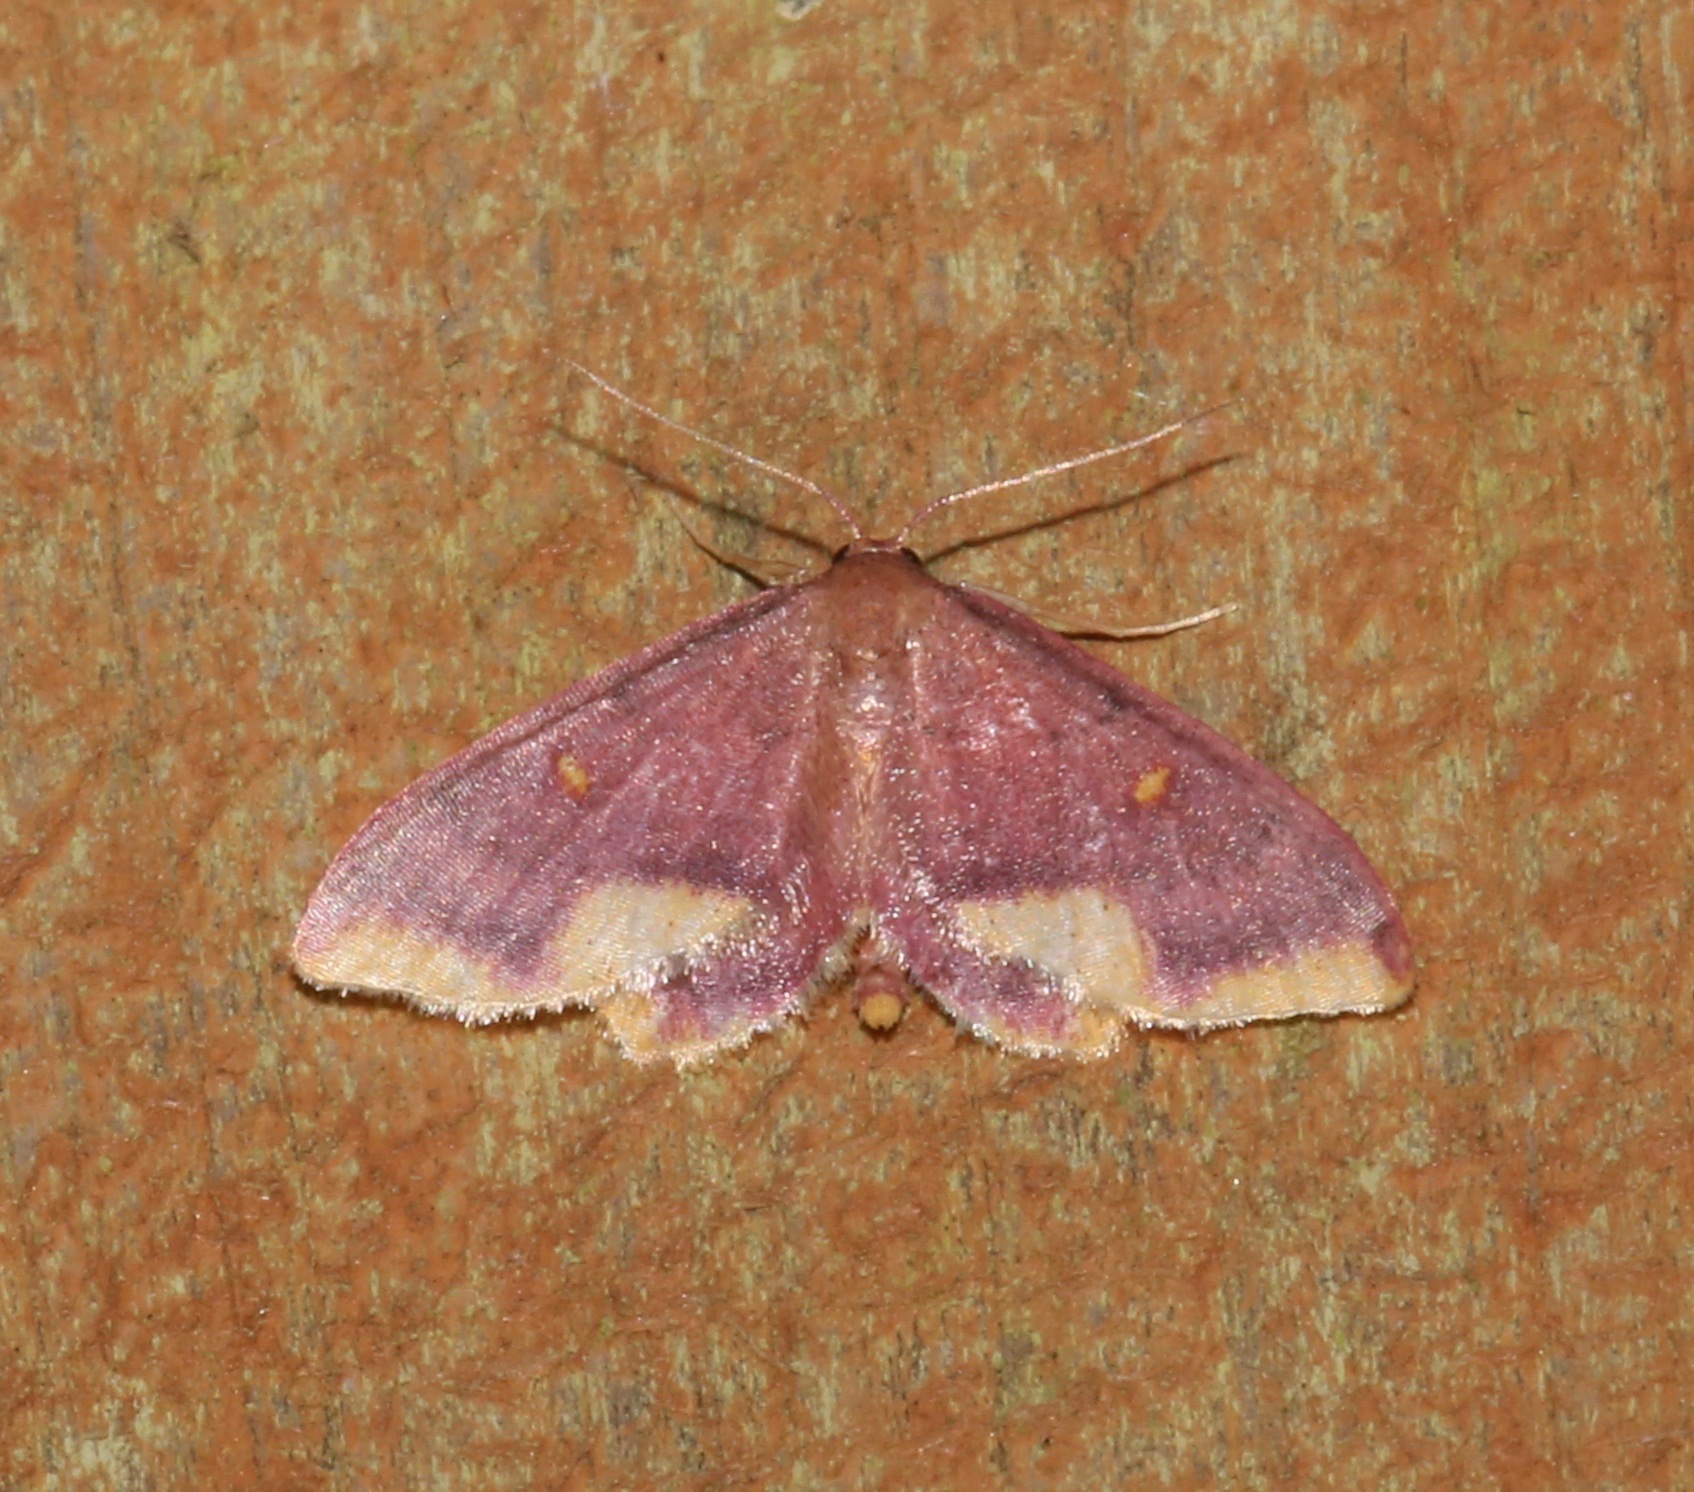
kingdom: Animalia
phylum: Arthropoda
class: Insecta
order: Lepidoptera
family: Geometridae
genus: Lophosis
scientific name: Lophosis labeculata
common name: Stained lophosis moth
